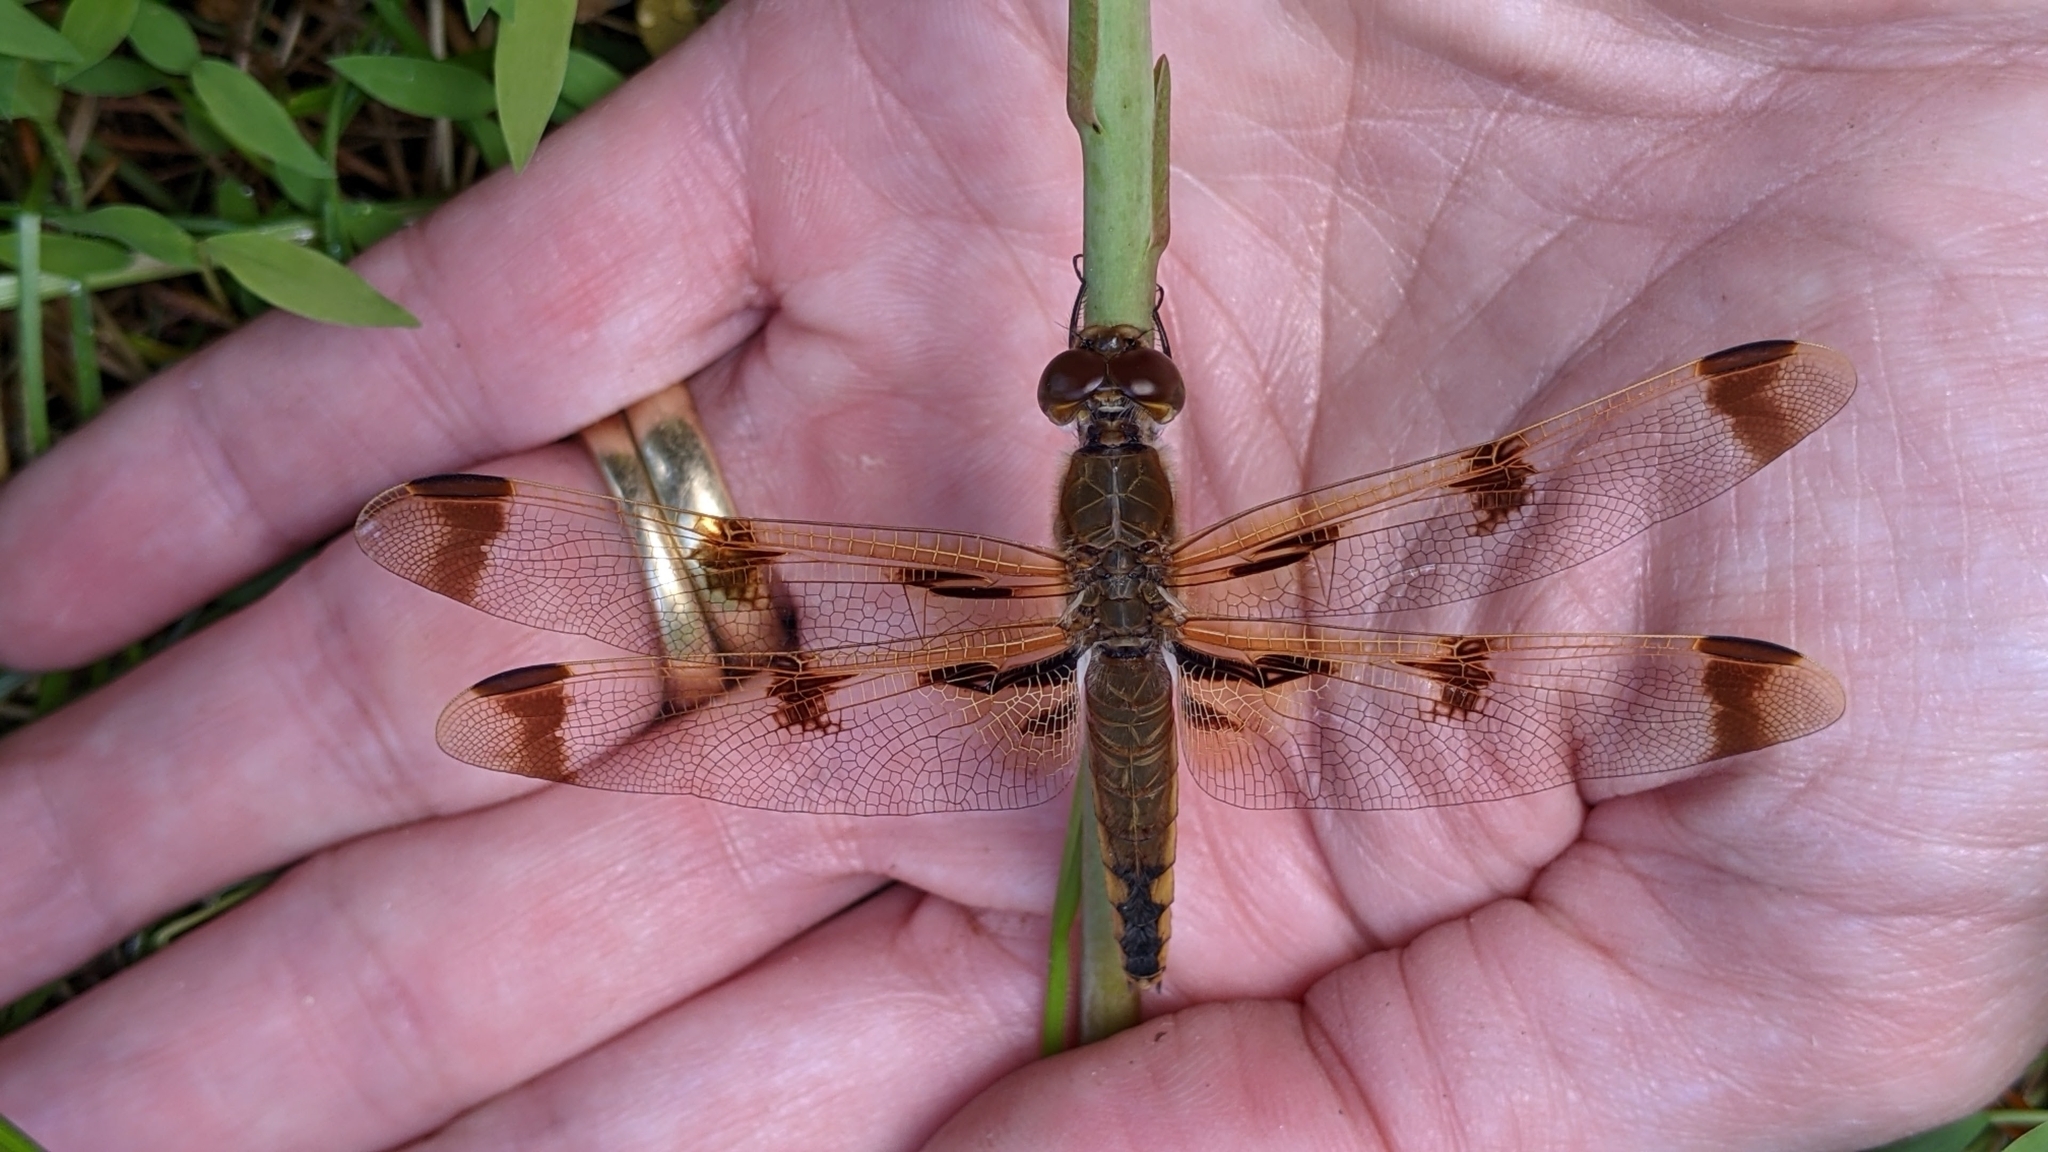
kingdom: Animalia
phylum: Arthropoda
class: Insecta
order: Odonata
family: Libellulidae
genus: Libellula
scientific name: Libellula semifasciata
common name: Painted skimmer
